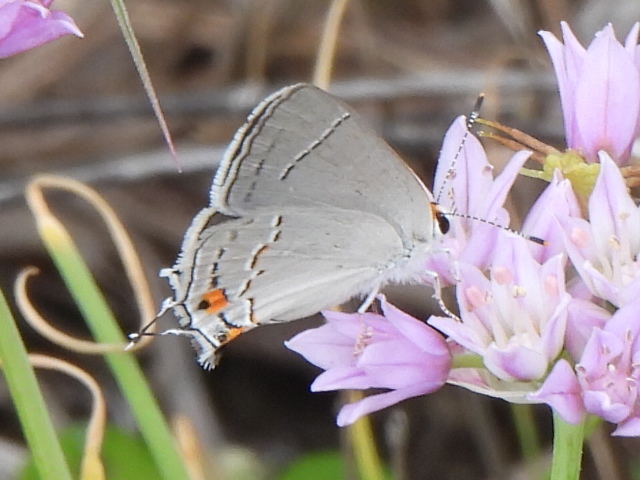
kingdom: Animalia
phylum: Arthropoda
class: Insecta
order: Lepidoptera
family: Lycaenidae
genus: Strymon
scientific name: Strymon melinus
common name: Gray hairstreak
